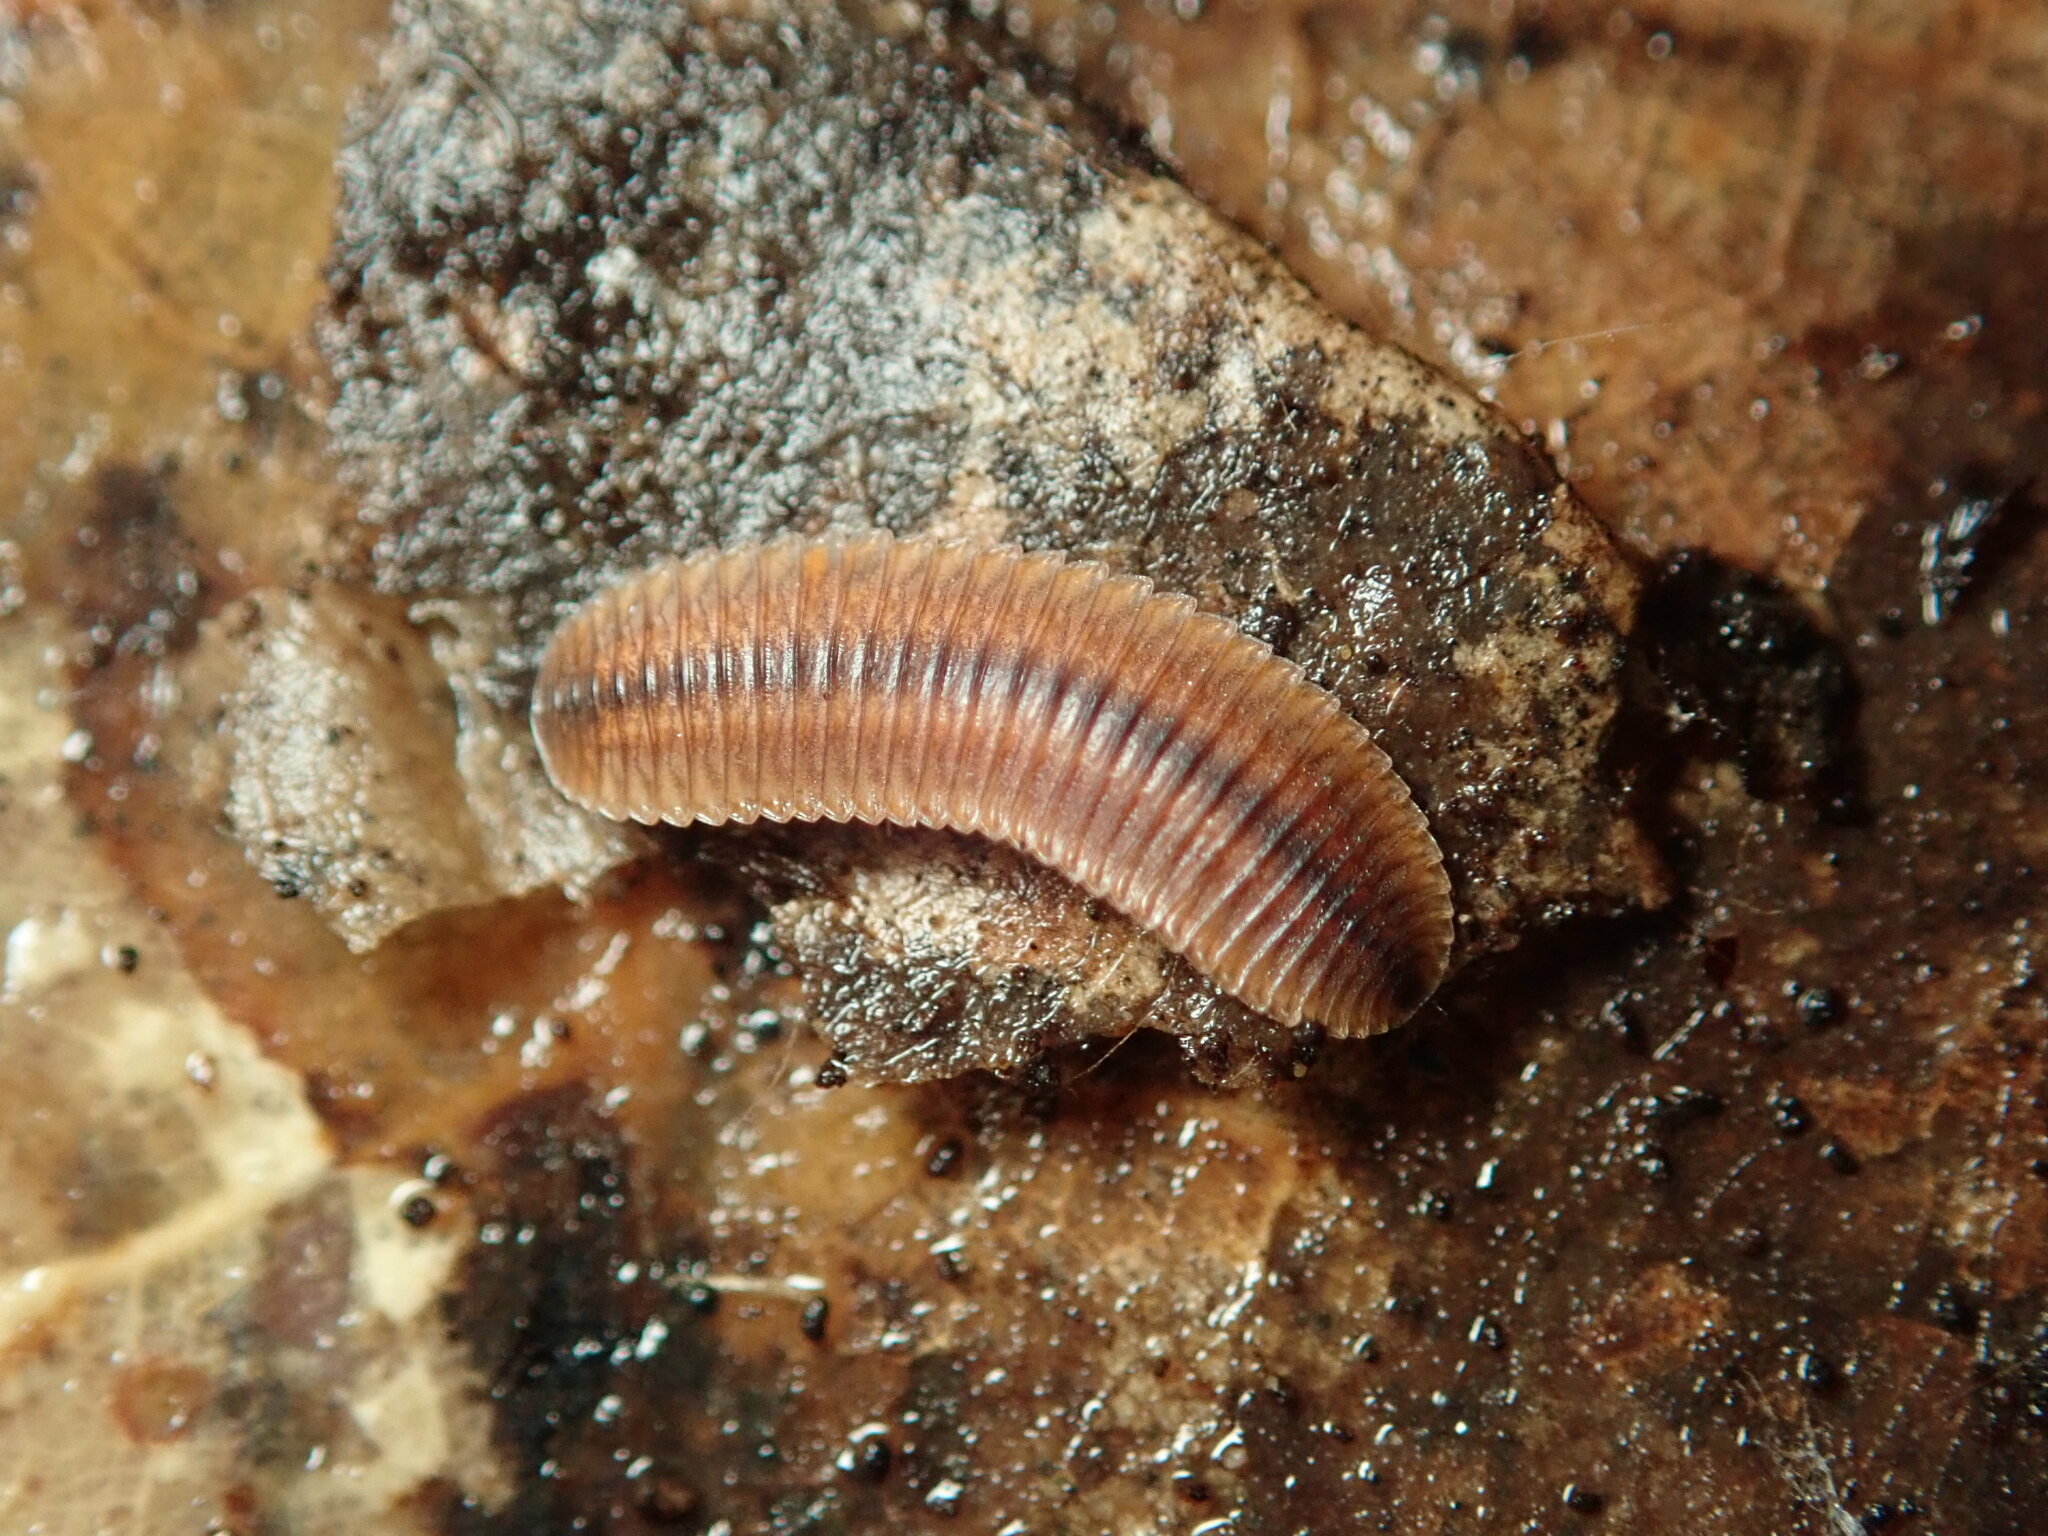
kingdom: Animalia
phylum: Arthropoda
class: Diplopoda
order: Polyzoniida
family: Hirudisomatidae
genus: Octoglena
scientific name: Octoglena bivirgatum
